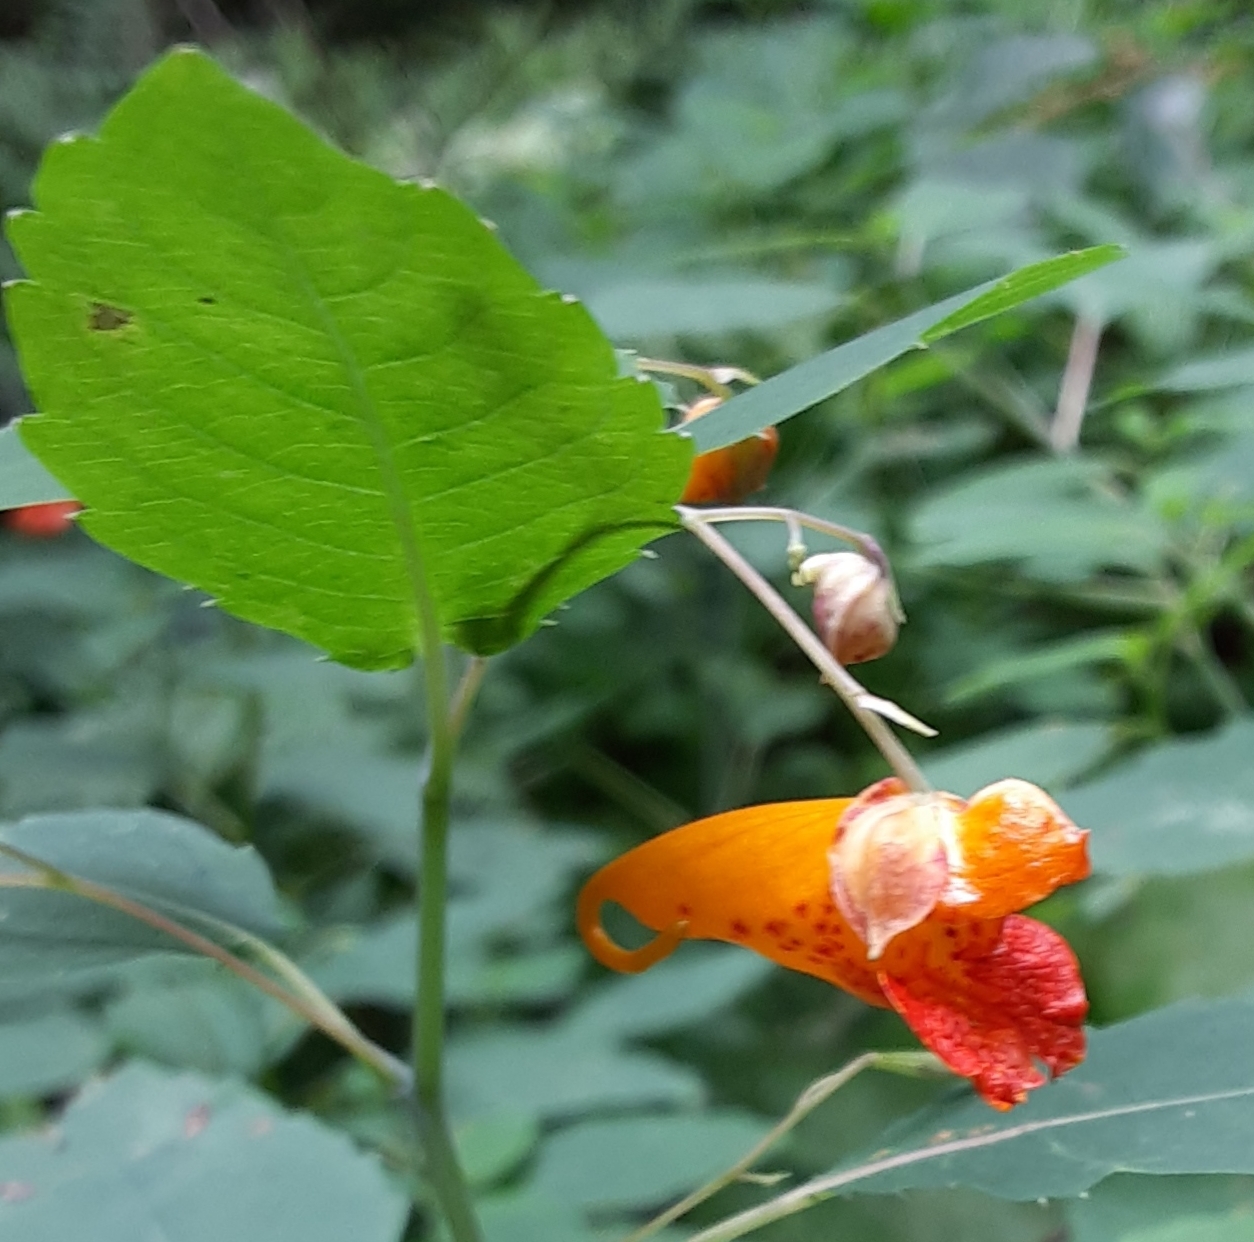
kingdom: Plantae
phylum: Tracheophyta
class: Magnoliopsida
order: Ericales
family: Balsaminaceae
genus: Impatiens
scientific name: Impatiens capensis
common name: Orange balsam
